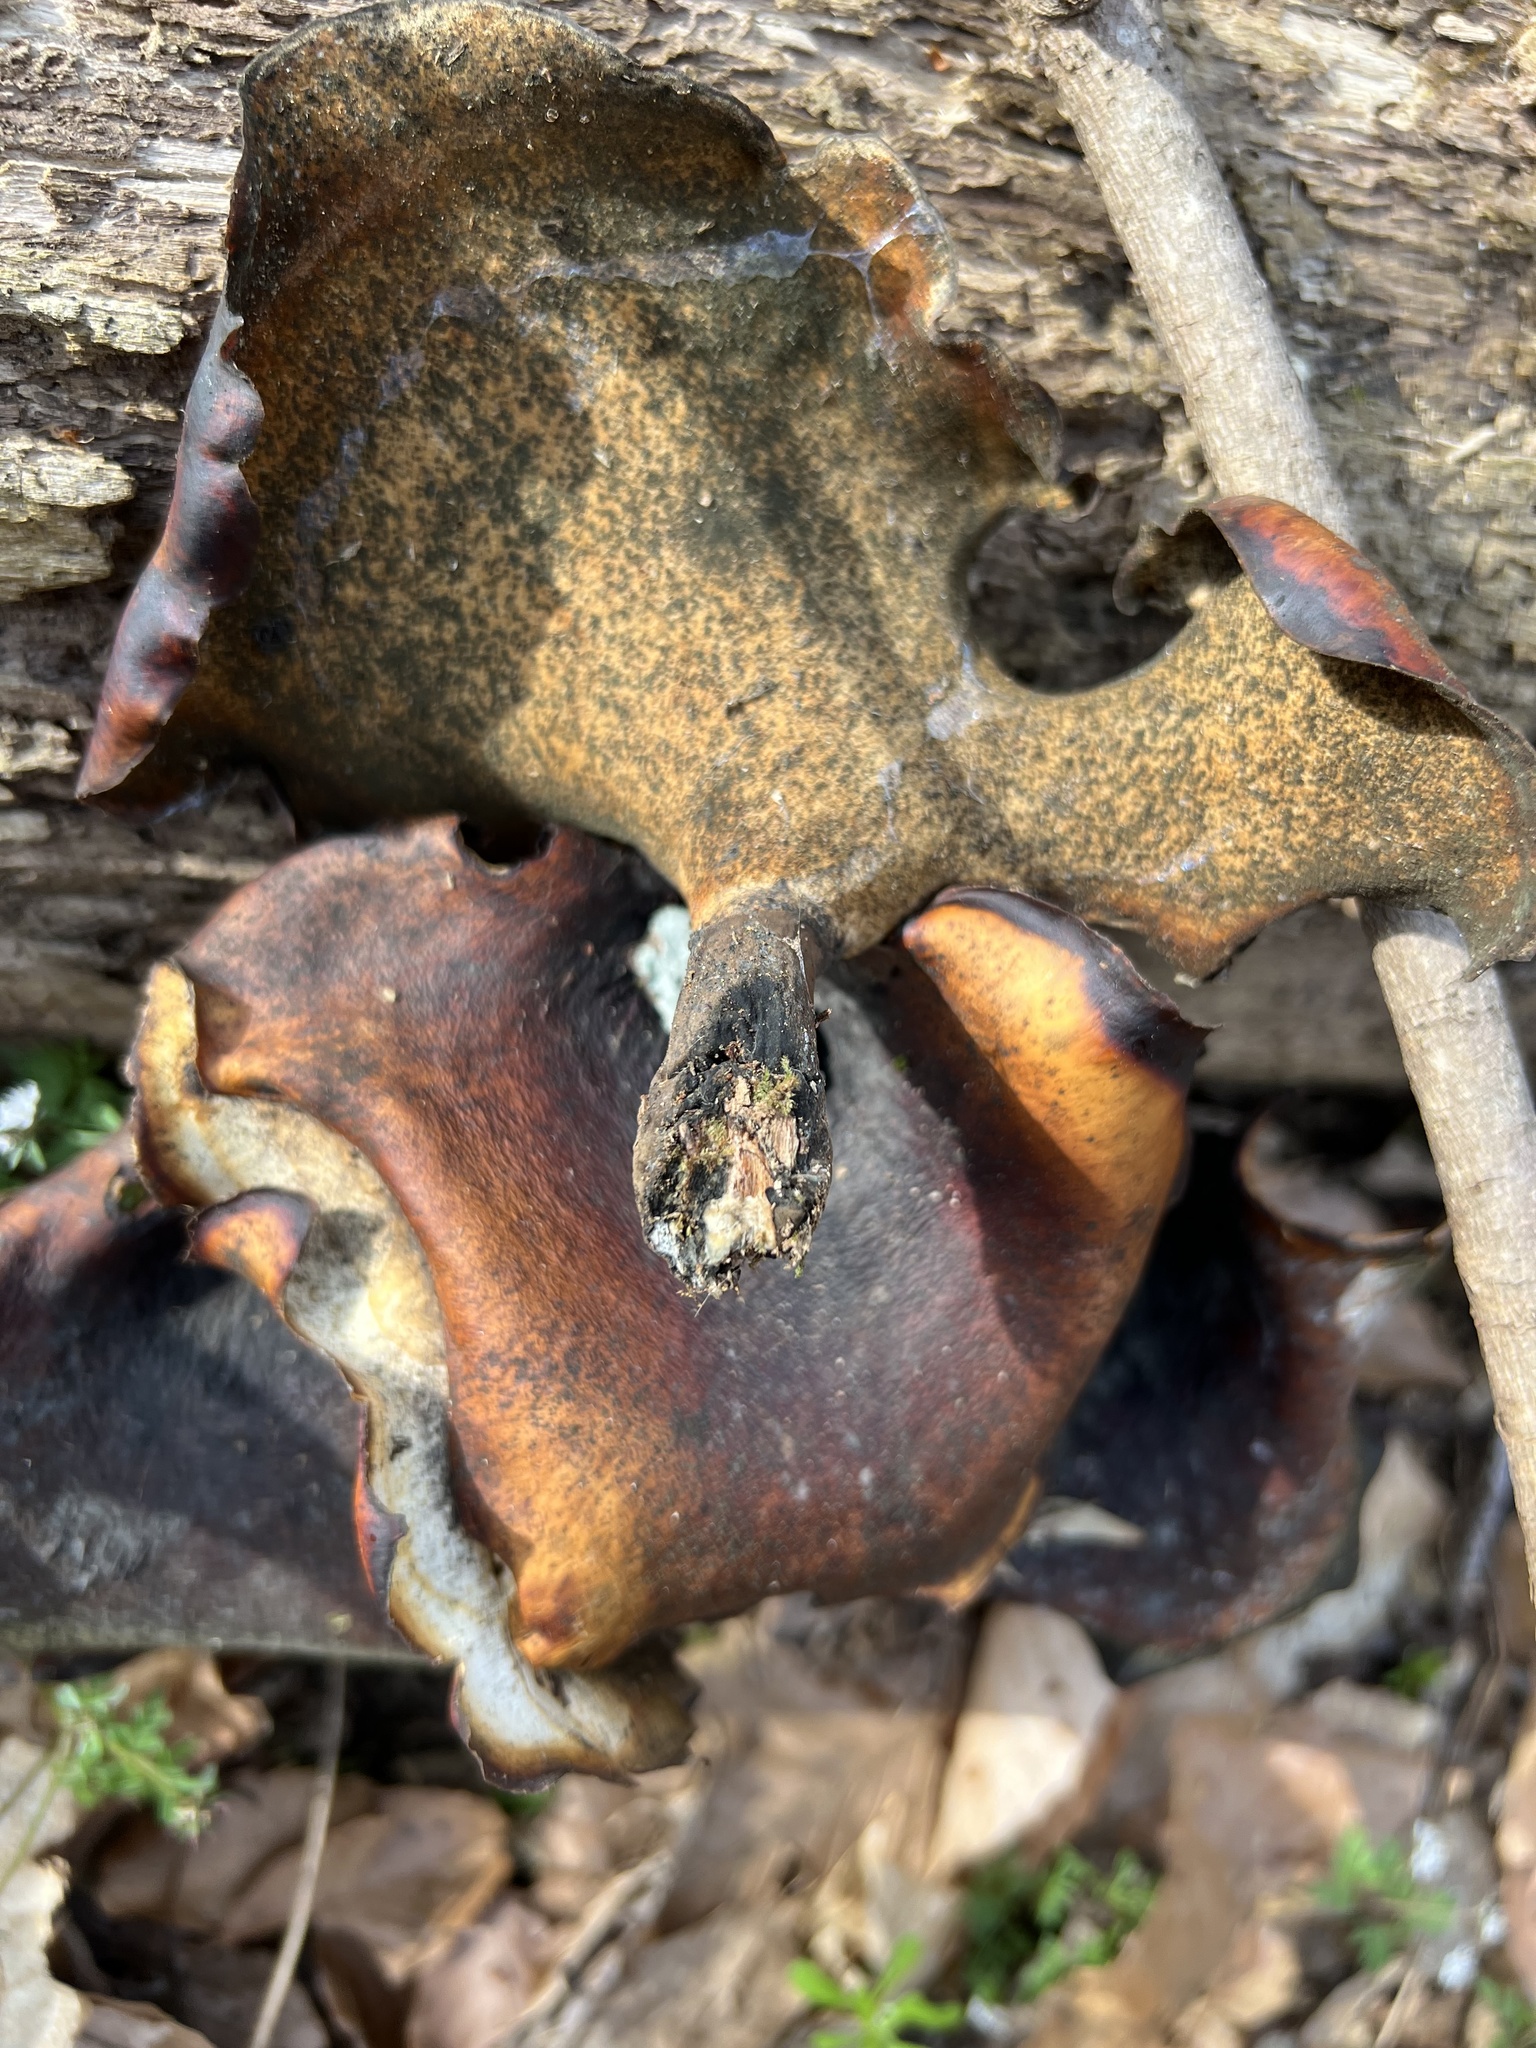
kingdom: Fungi
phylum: Basidiomycota
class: Agaricomycetes
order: Polyporales
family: Polyporaceae
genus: Picipes
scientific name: Picipes badius
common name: Bay polypore
